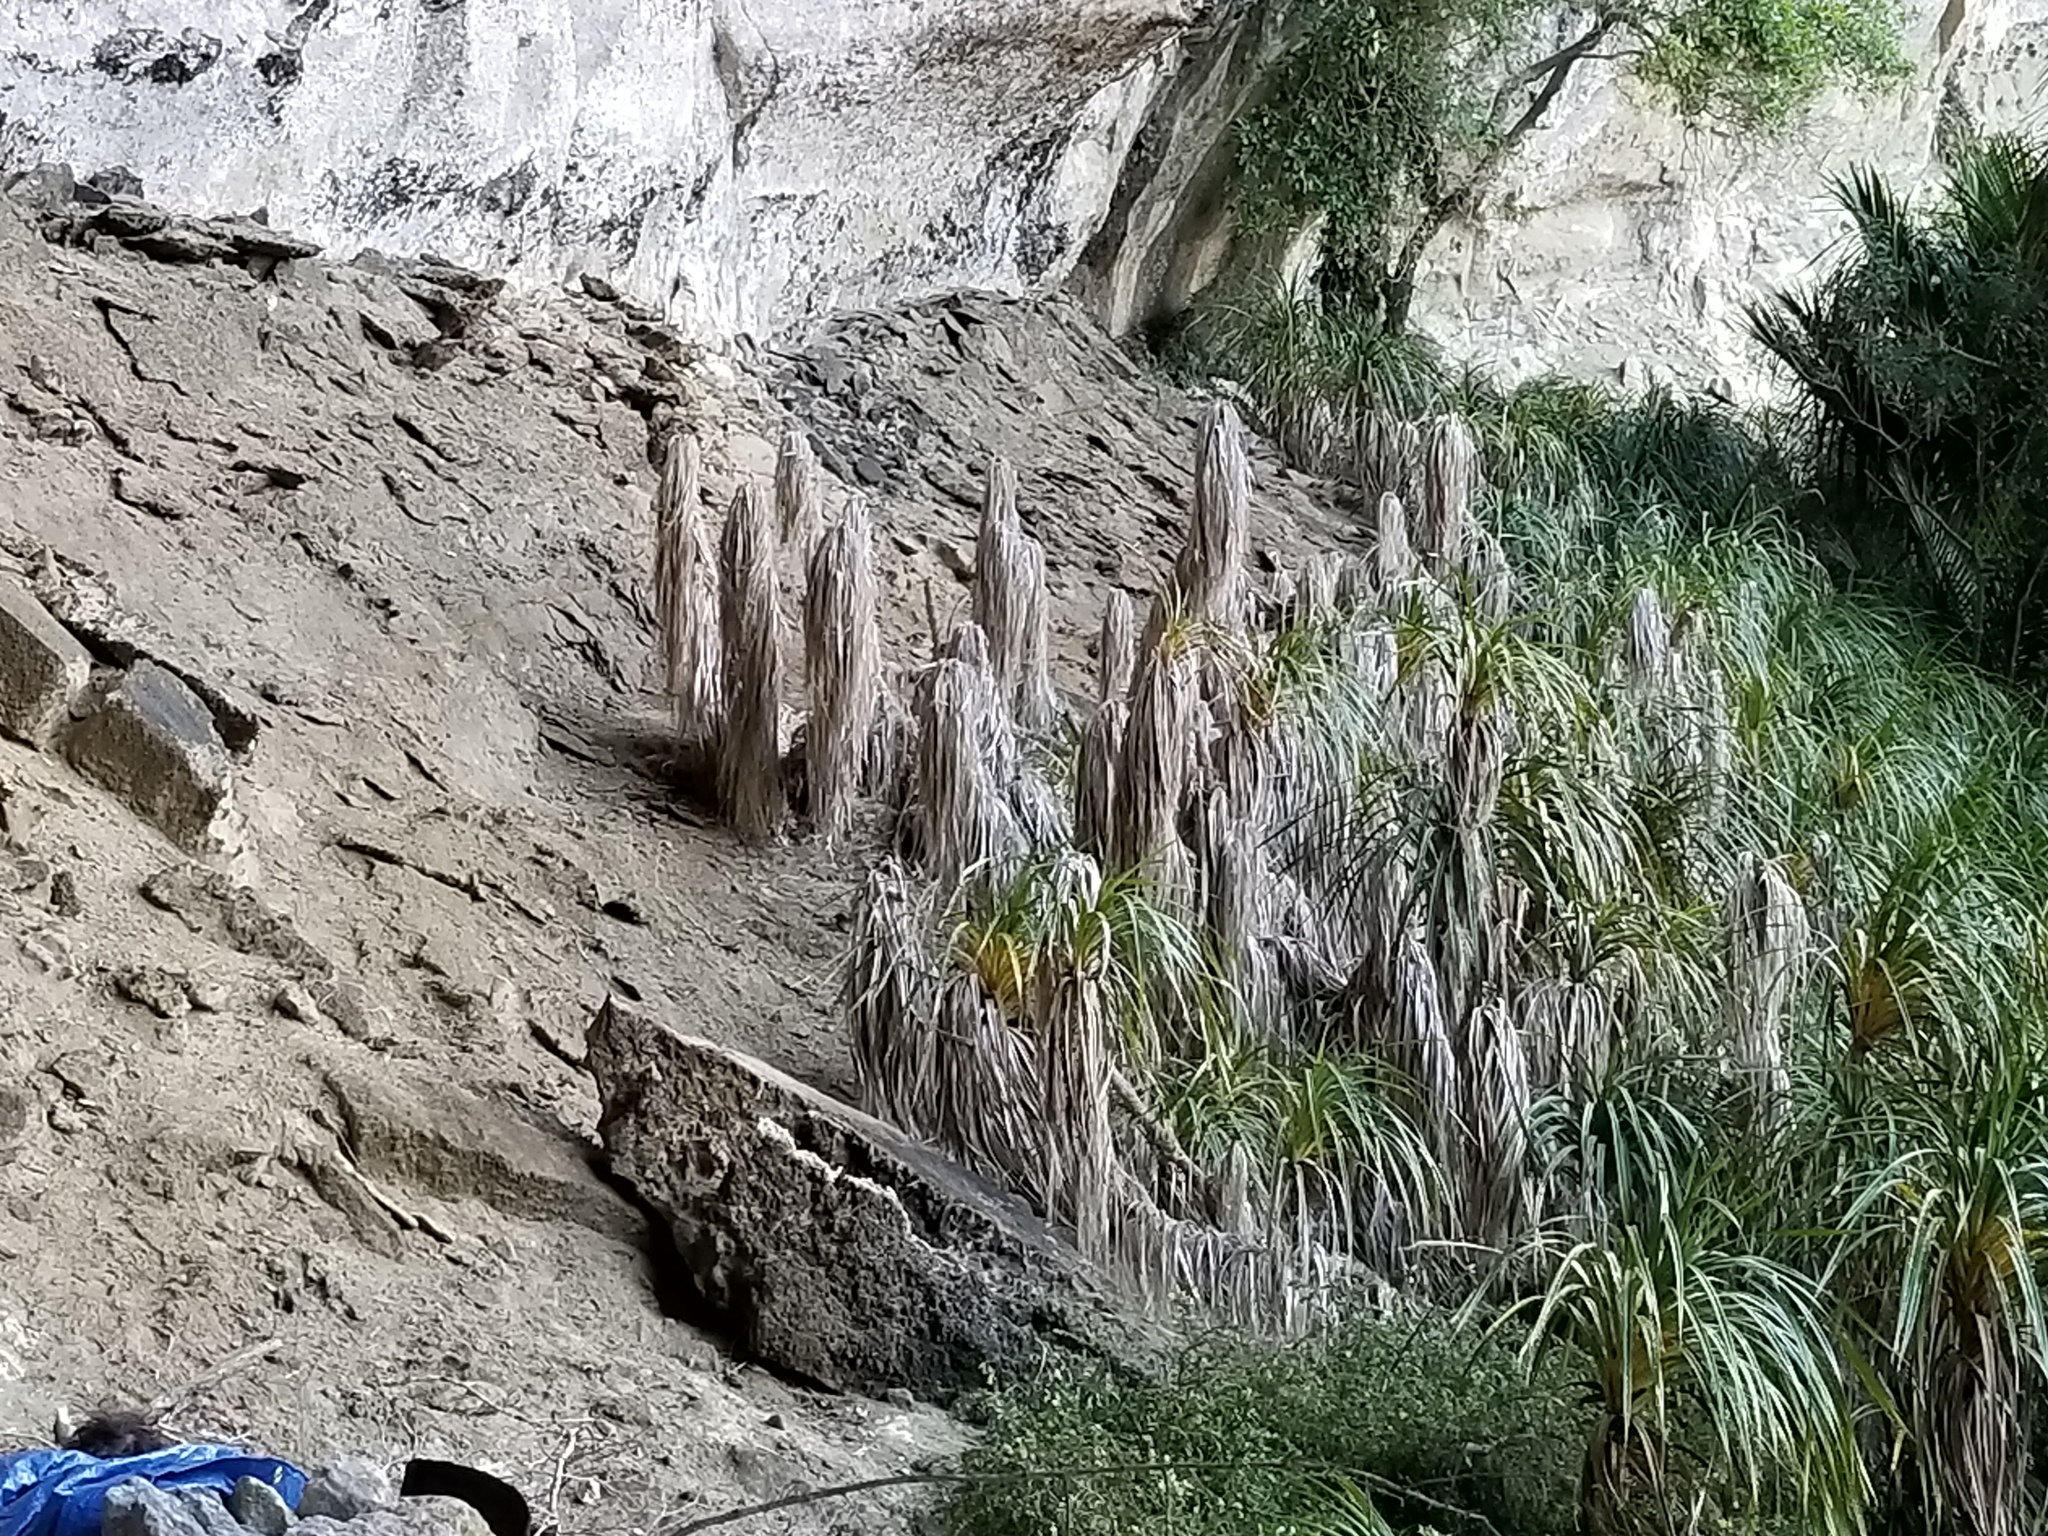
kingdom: Plantae
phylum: Tracheophyta
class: Liliopsida
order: Pandanales
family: Pandanaceae
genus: Freycinetia
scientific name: Freycinetia banksii
